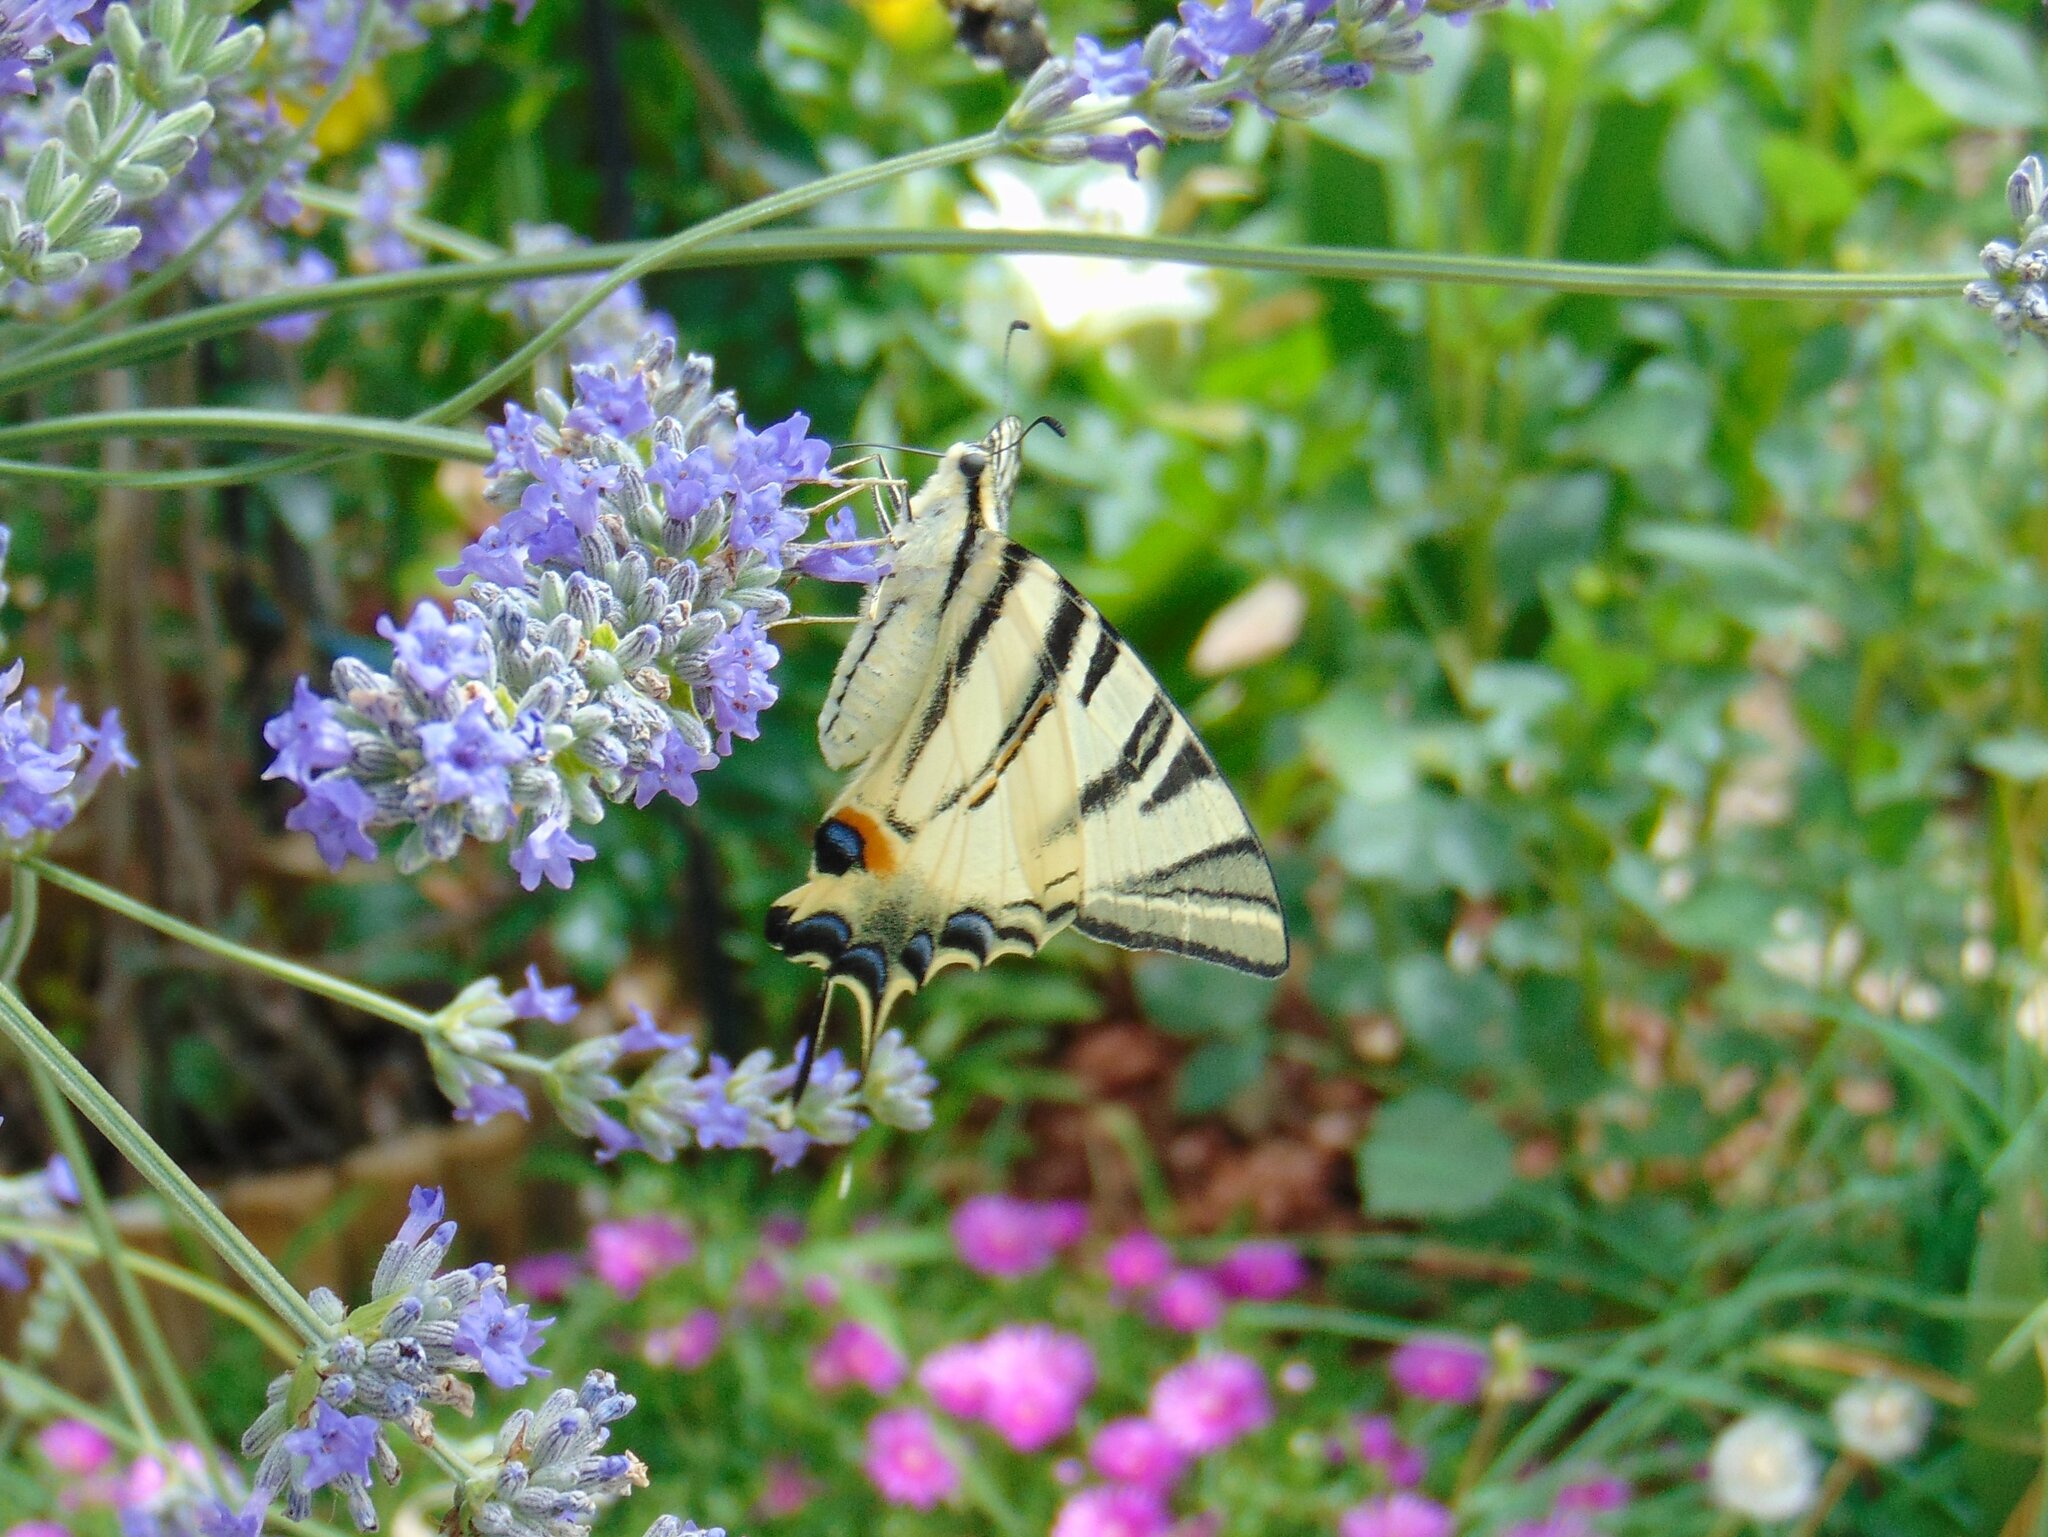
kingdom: Animalia
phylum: Arthropoda
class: Insecta
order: Lepidoptera
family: Papilionidae
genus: Iphiclides
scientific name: Iphiclides podalirius
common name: Scarce swallowtail
